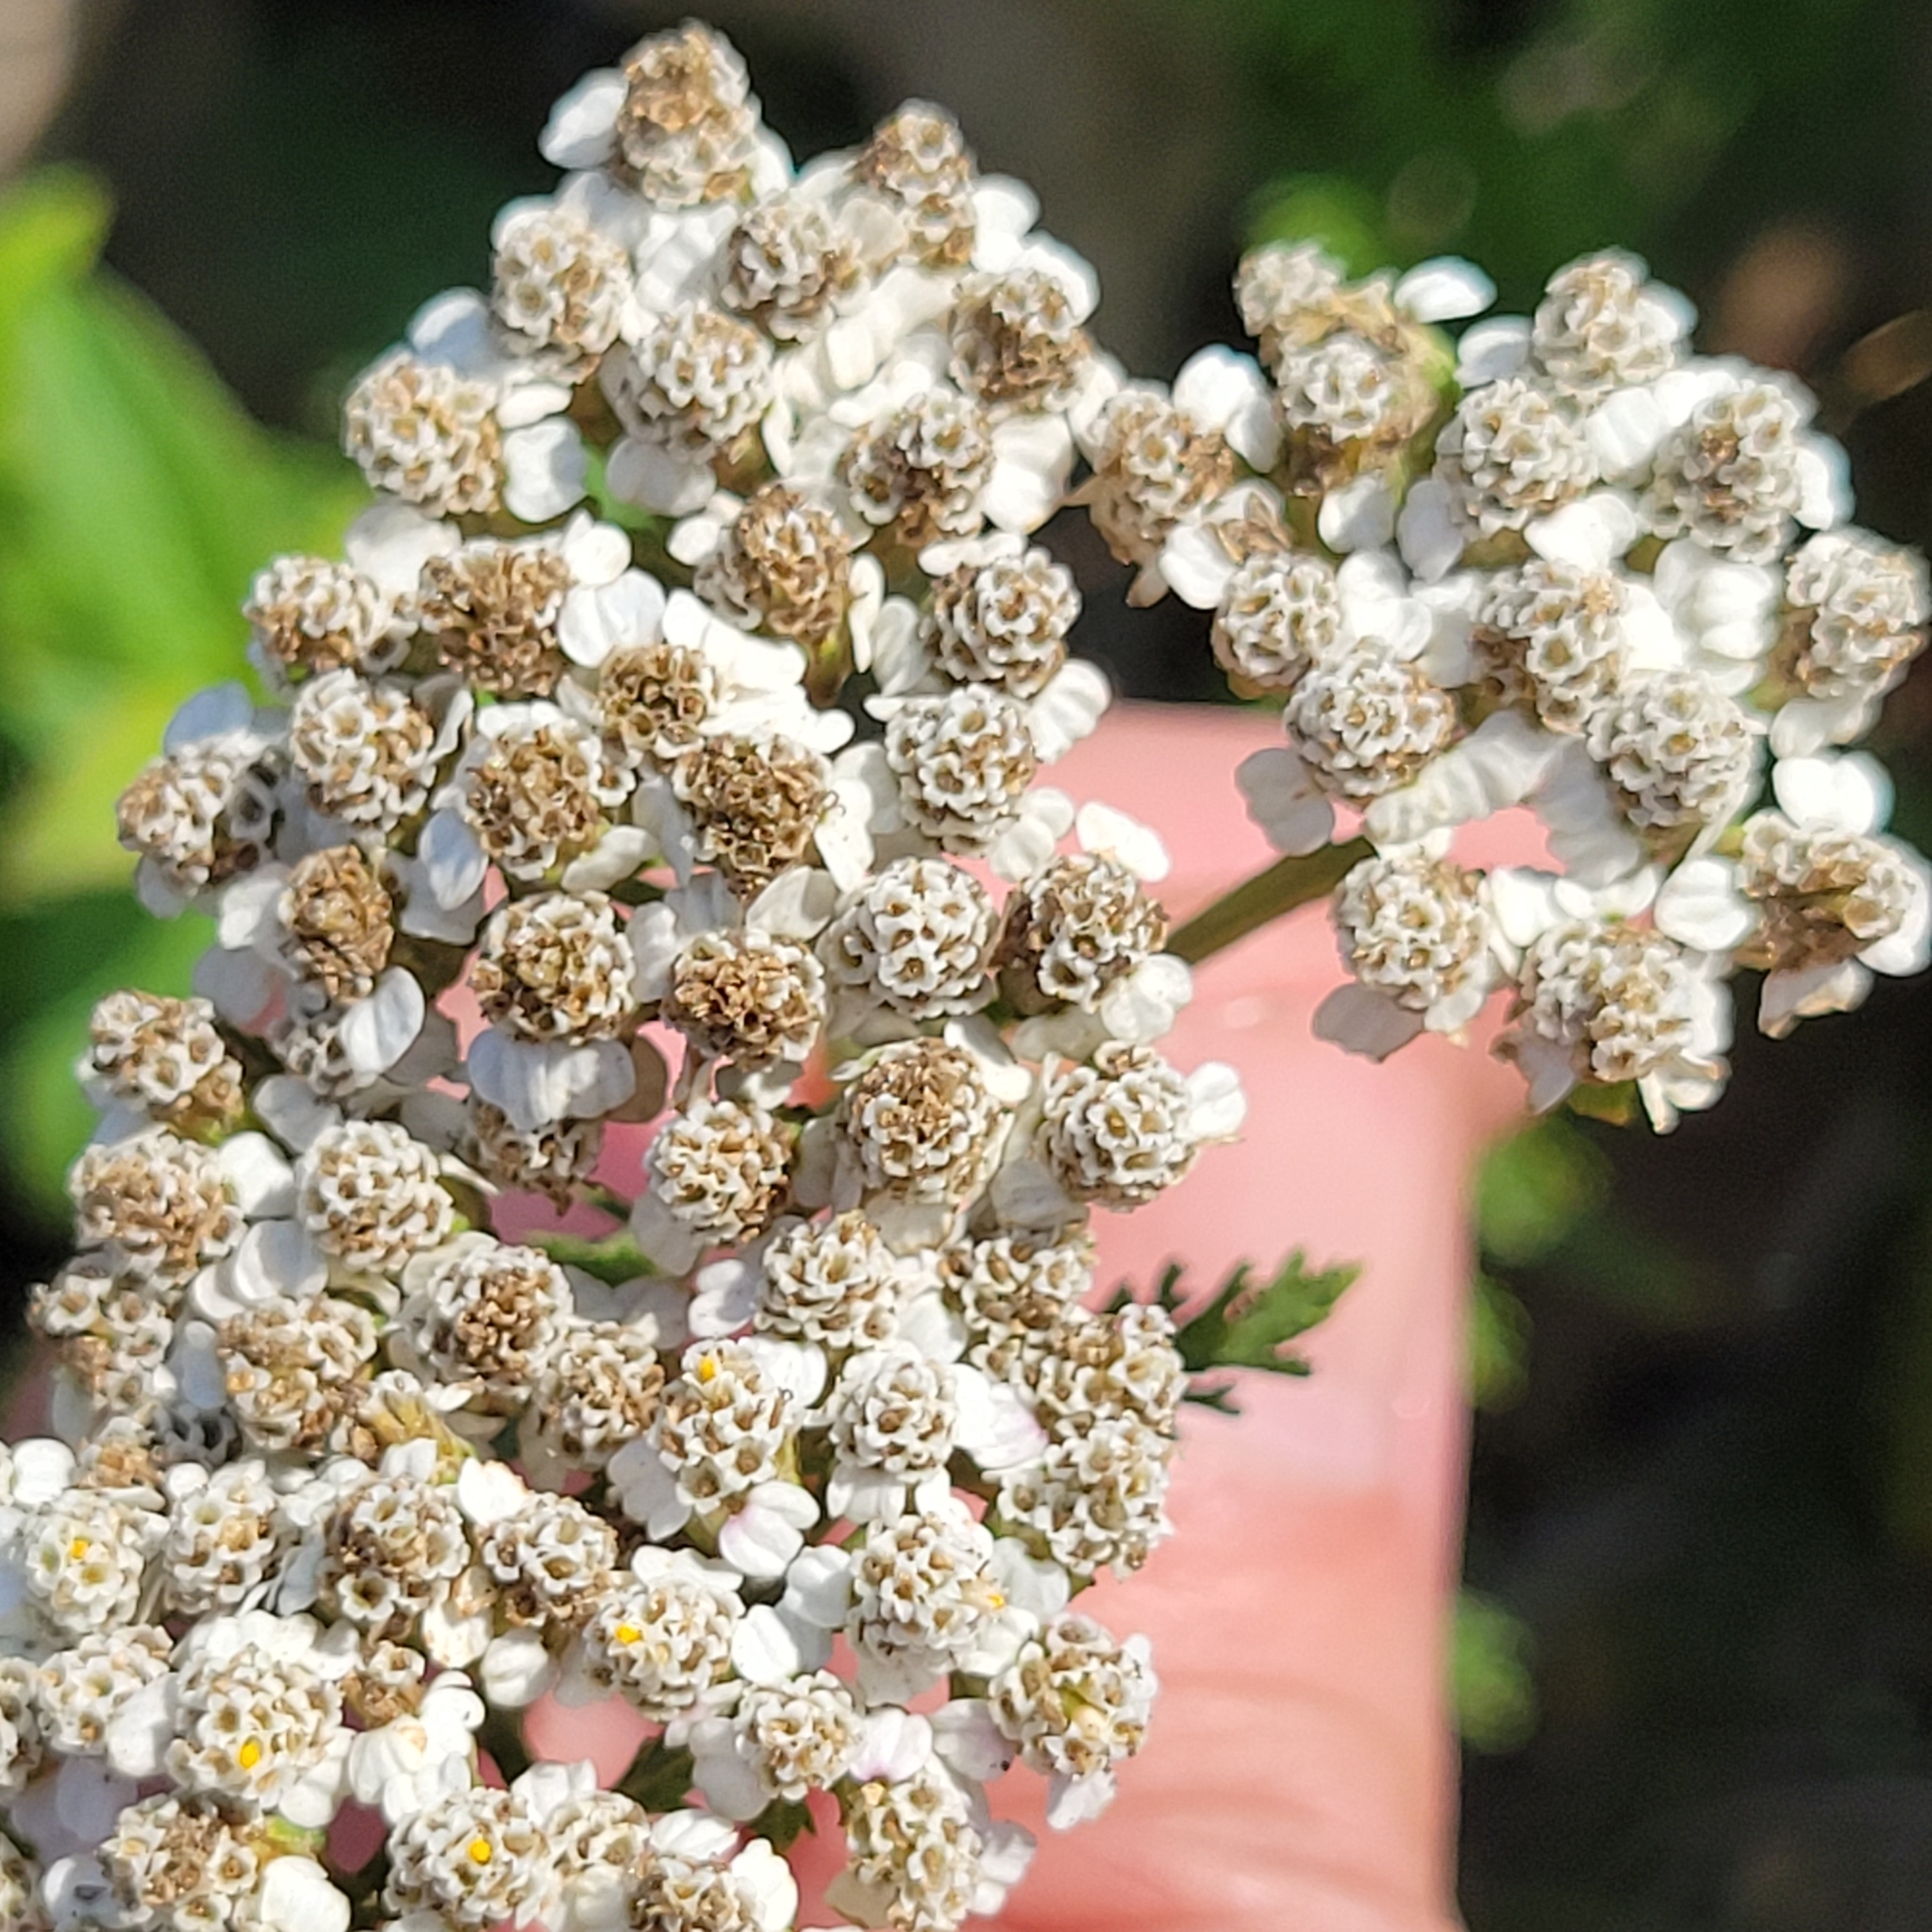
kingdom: Plantae
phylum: Tracheophyta
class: Magnoliopsida
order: Asterales
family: Asteraceae
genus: Achillea
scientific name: Achillea millefolium
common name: Yarrow
